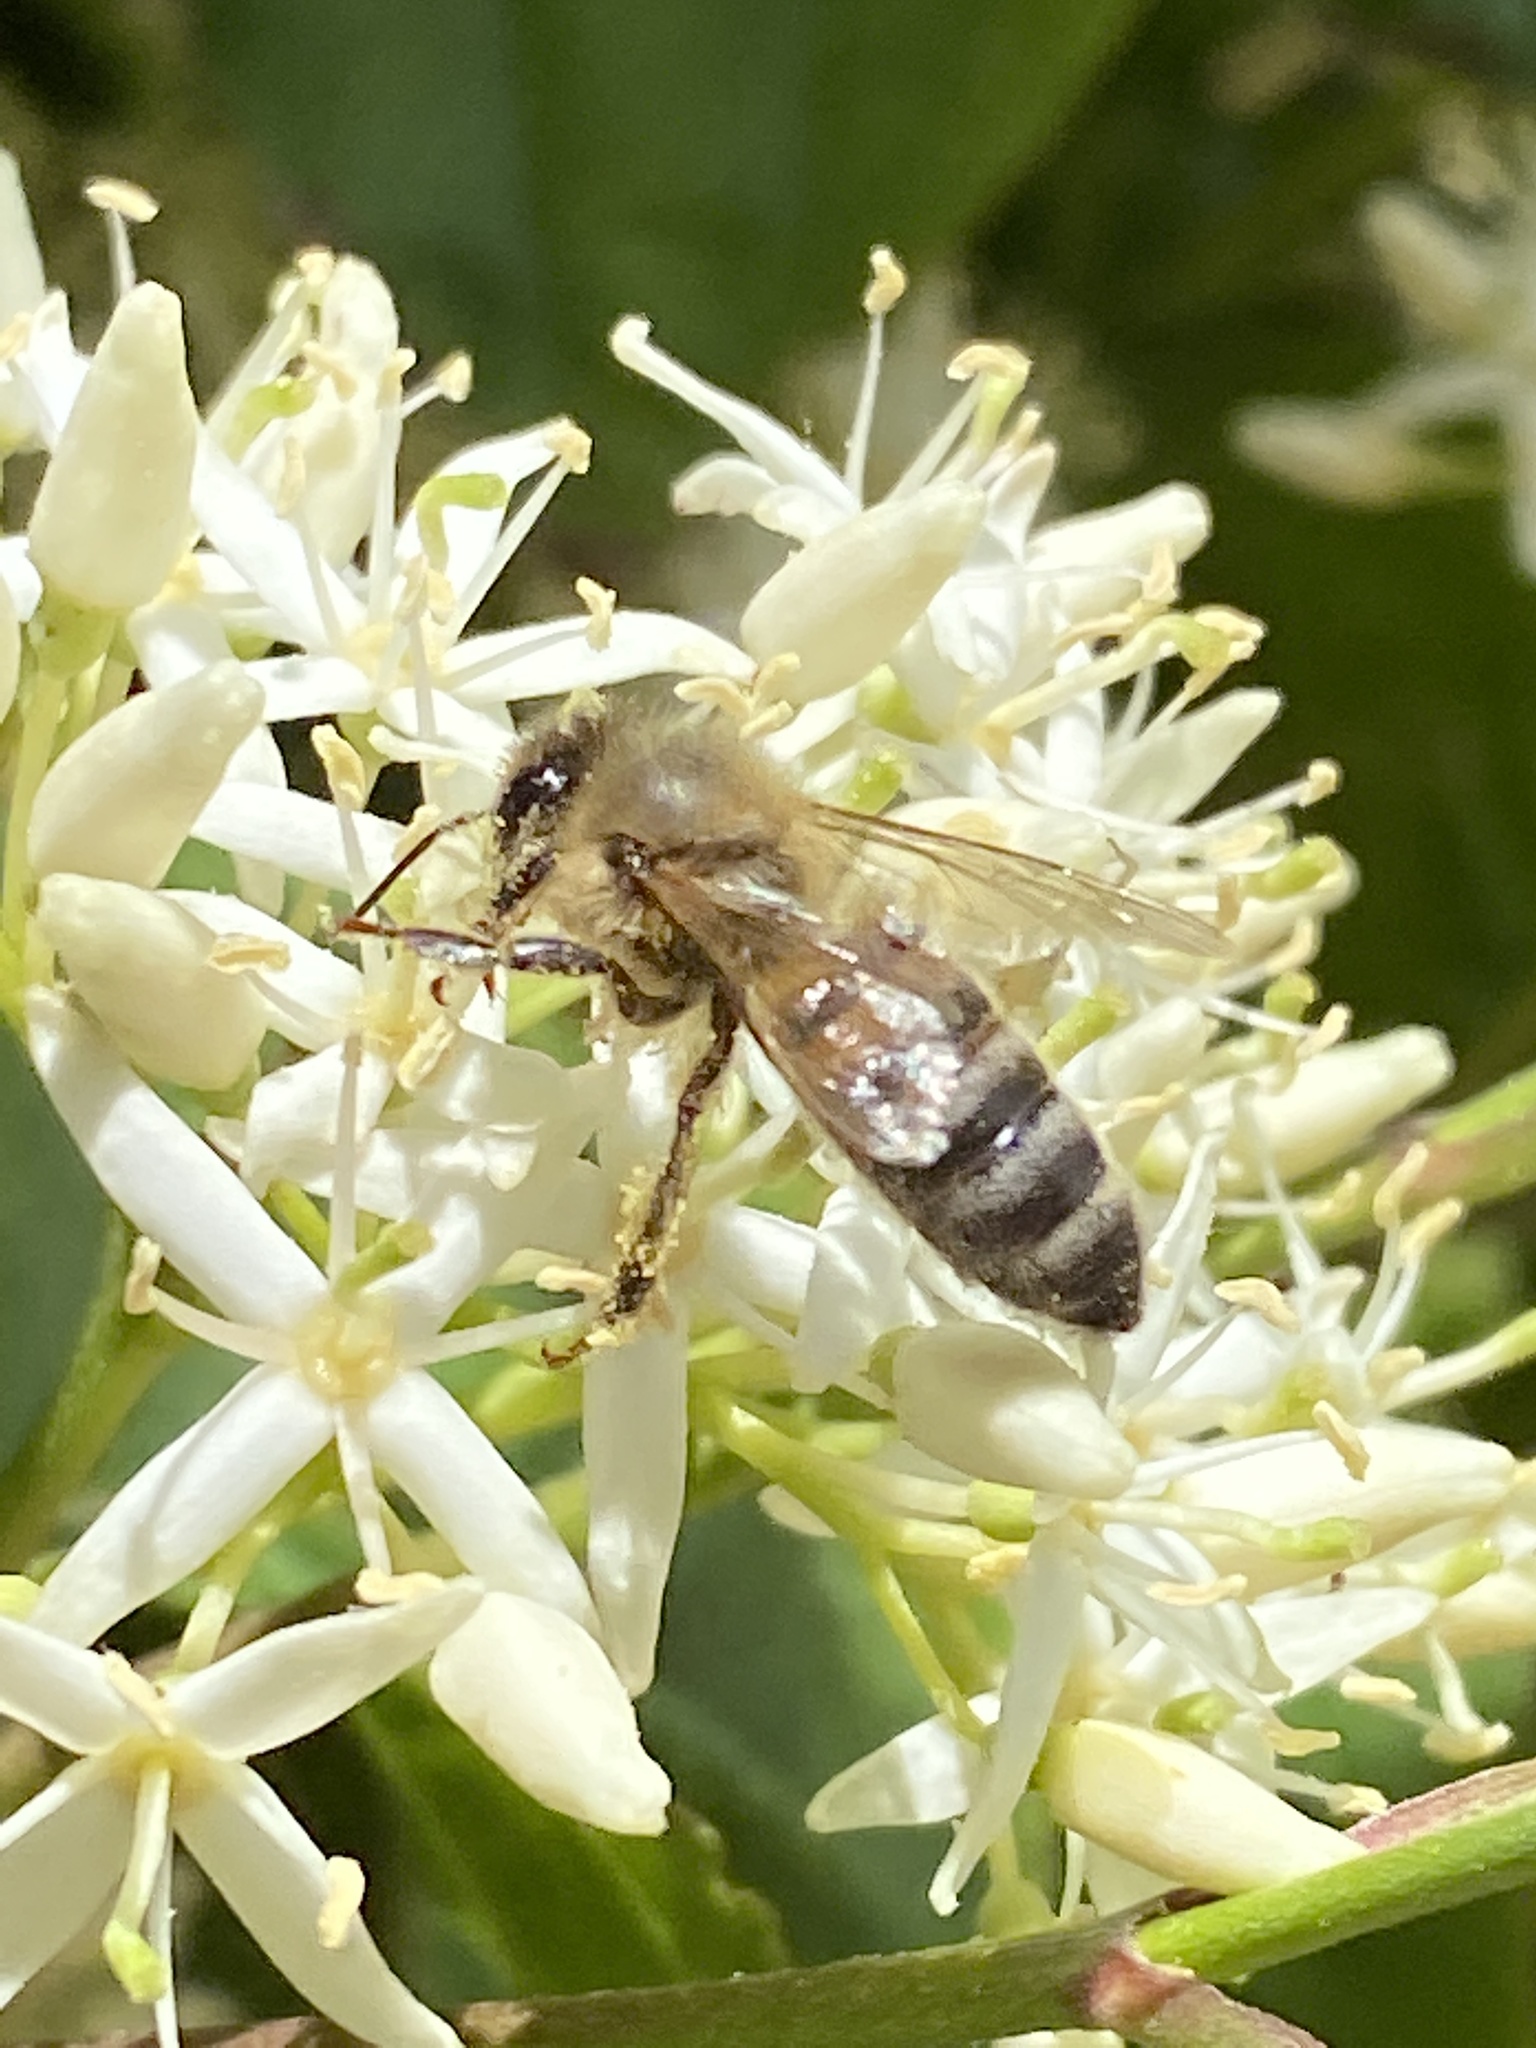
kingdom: Animalia
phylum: Arthropoda
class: Insecta
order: Hymenoptera
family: Apidae
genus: Apis
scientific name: Apis mellifera
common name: Honey bee
